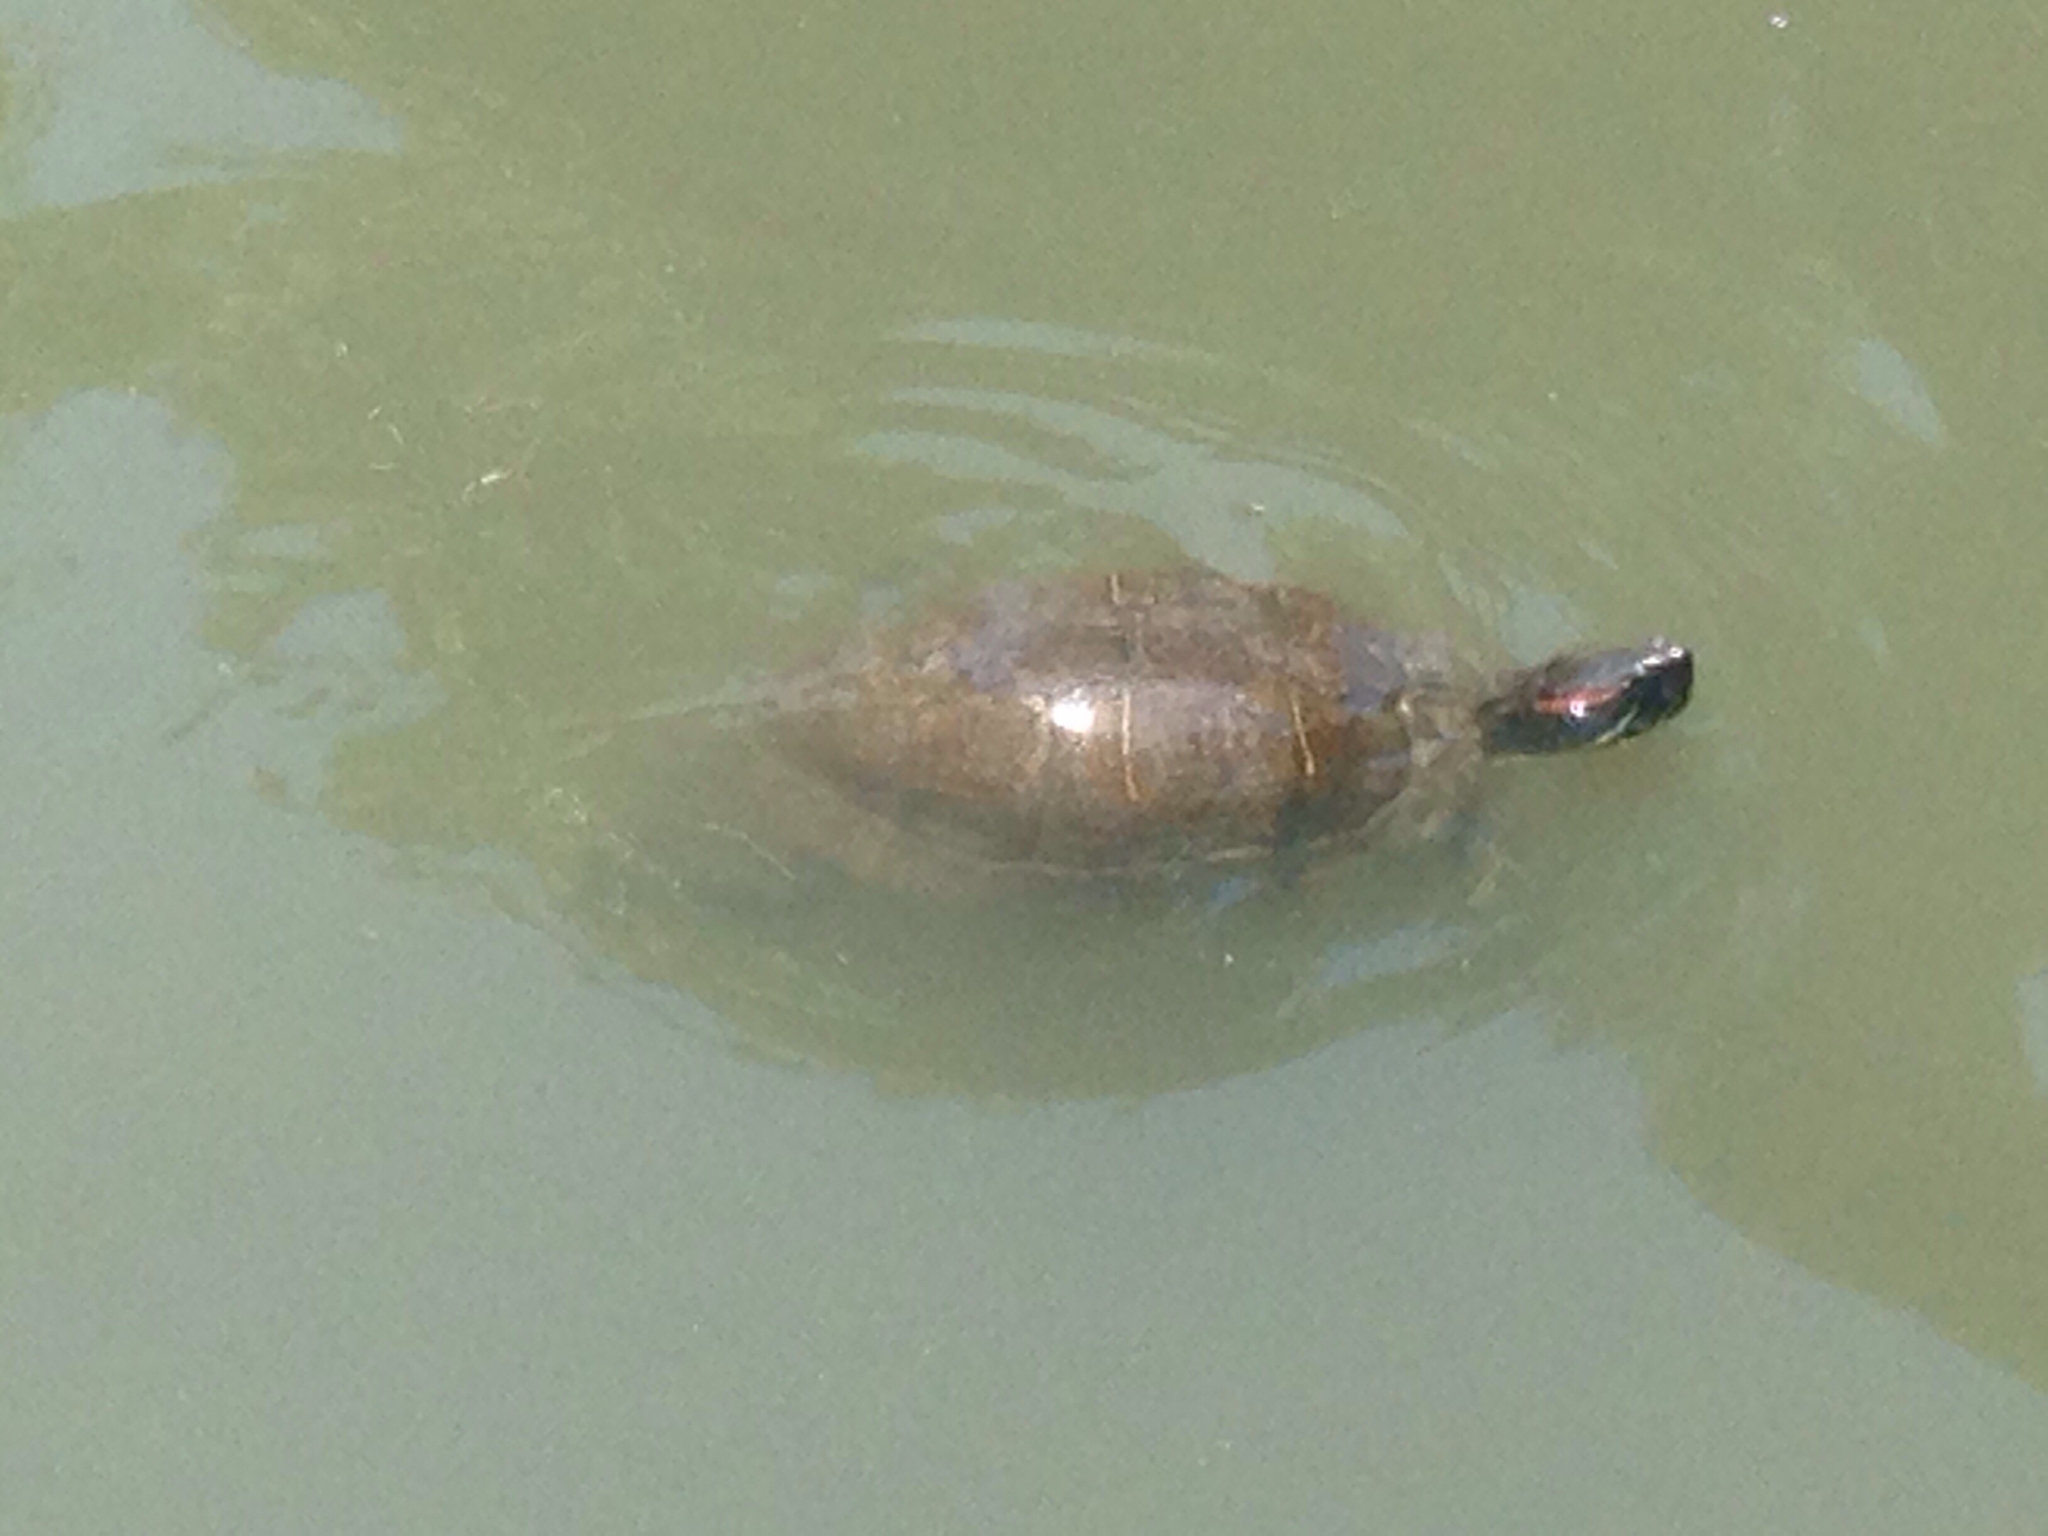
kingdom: Animalia
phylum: Chordata
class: Testudines
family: Emydidae
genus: Trachemys
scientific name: Trachemys scripta
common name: Slider
